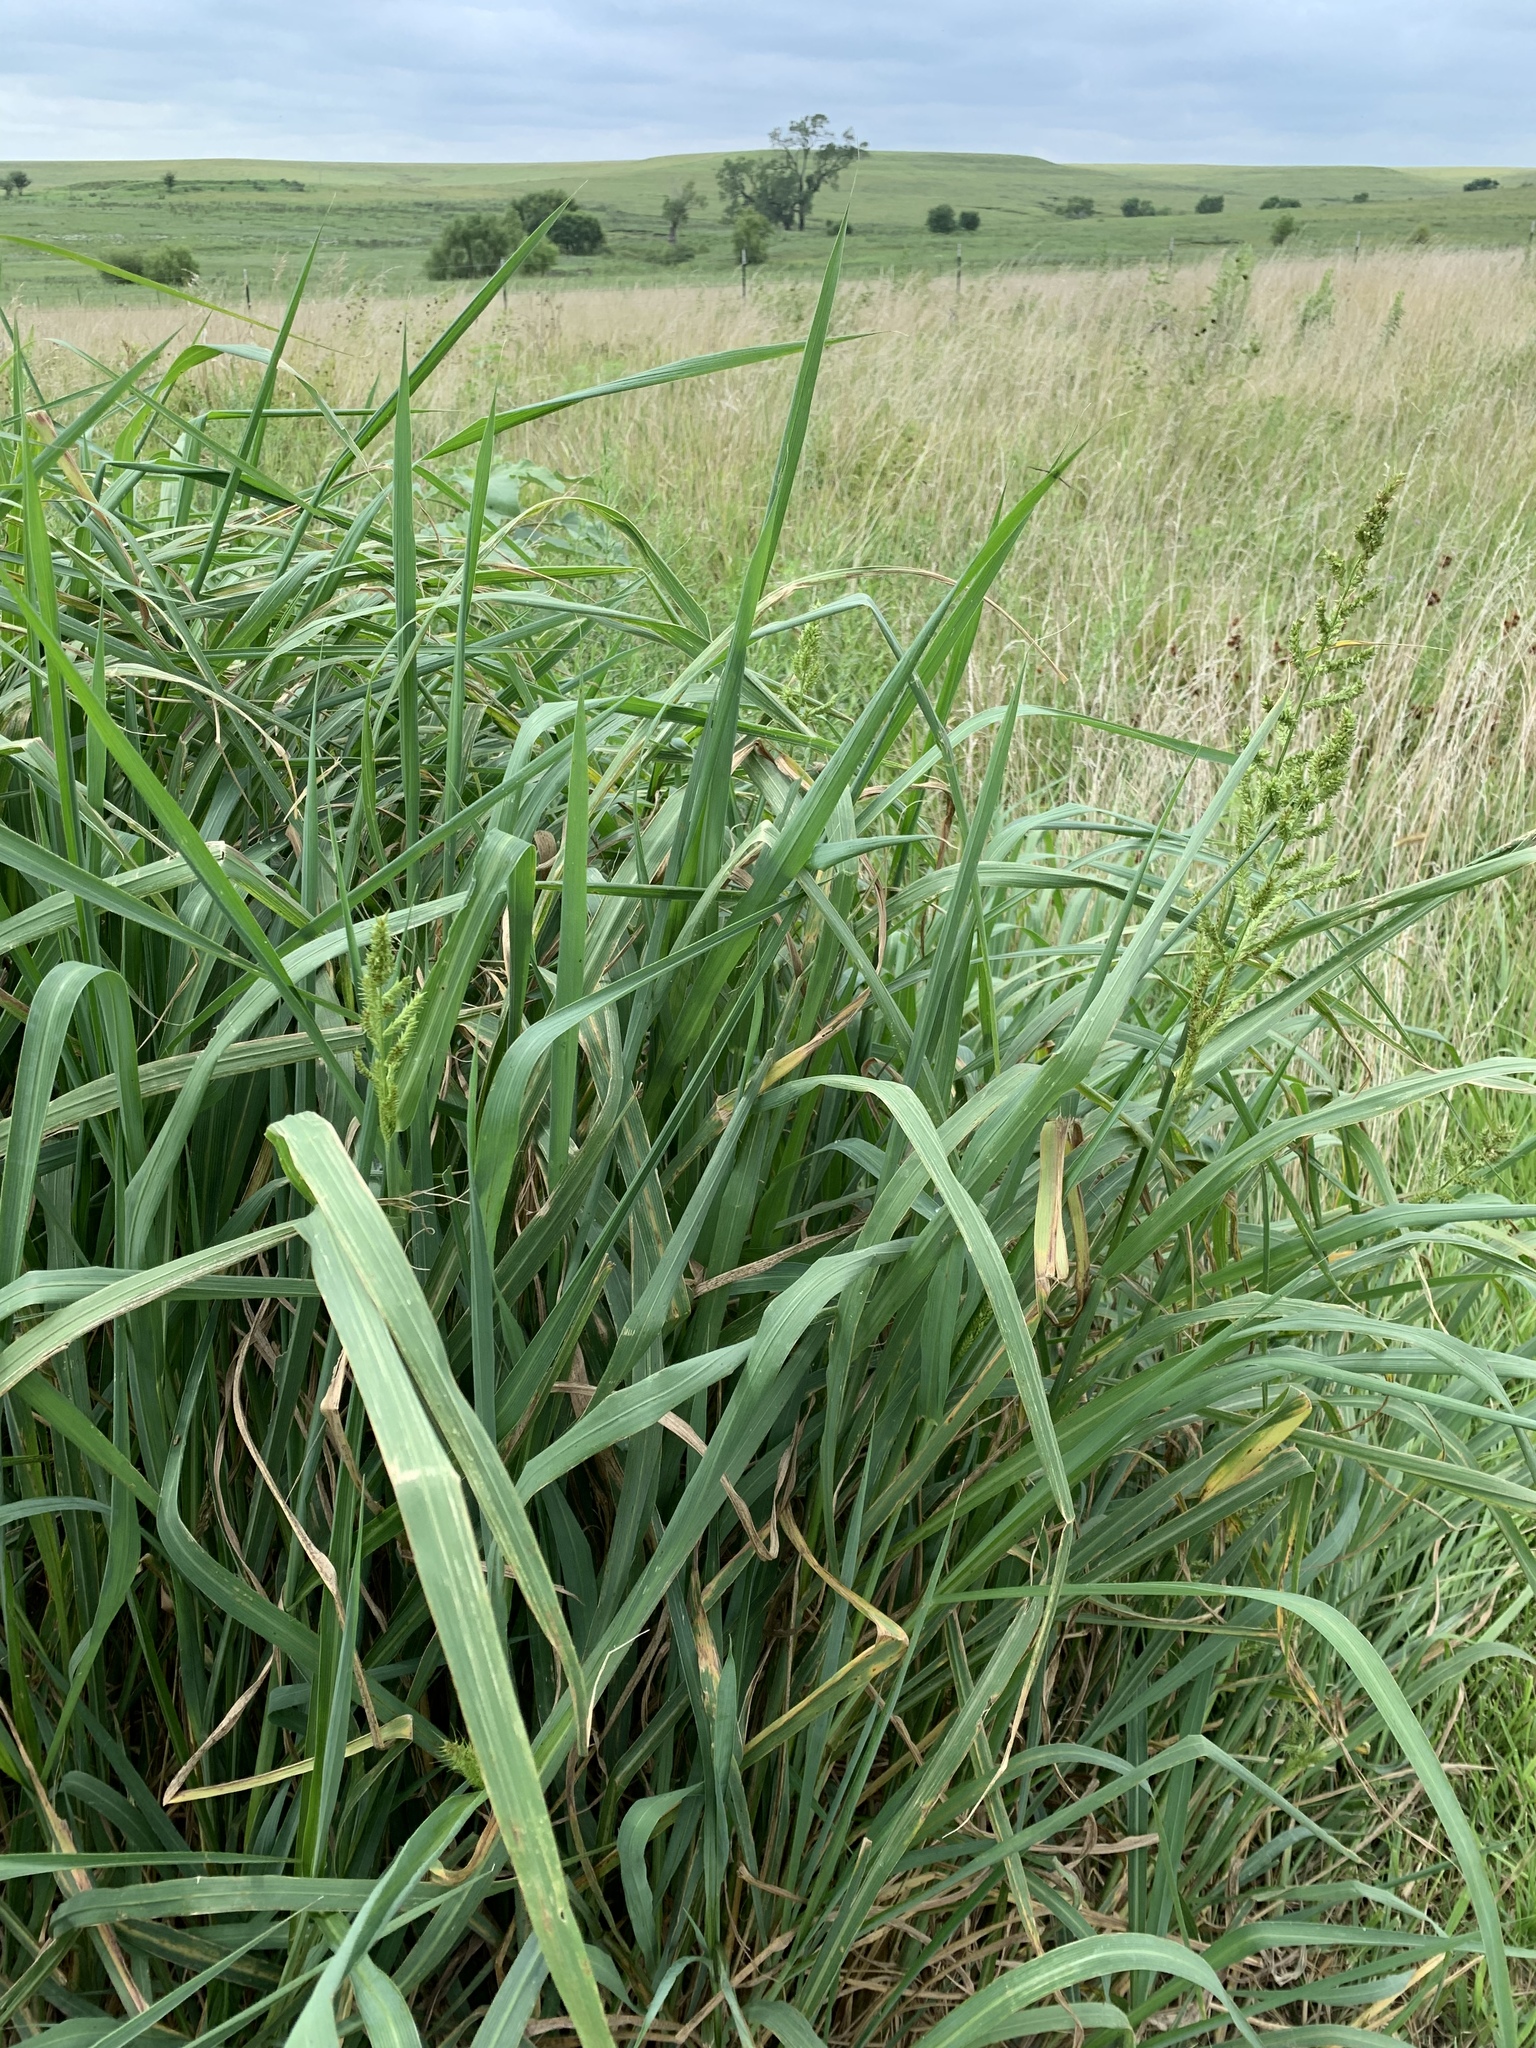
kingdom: Plantae
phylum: Tracheophyta
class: Liliopsida
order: Poales
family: Poaceae
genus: Echinochloa
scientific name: Echinochloa
